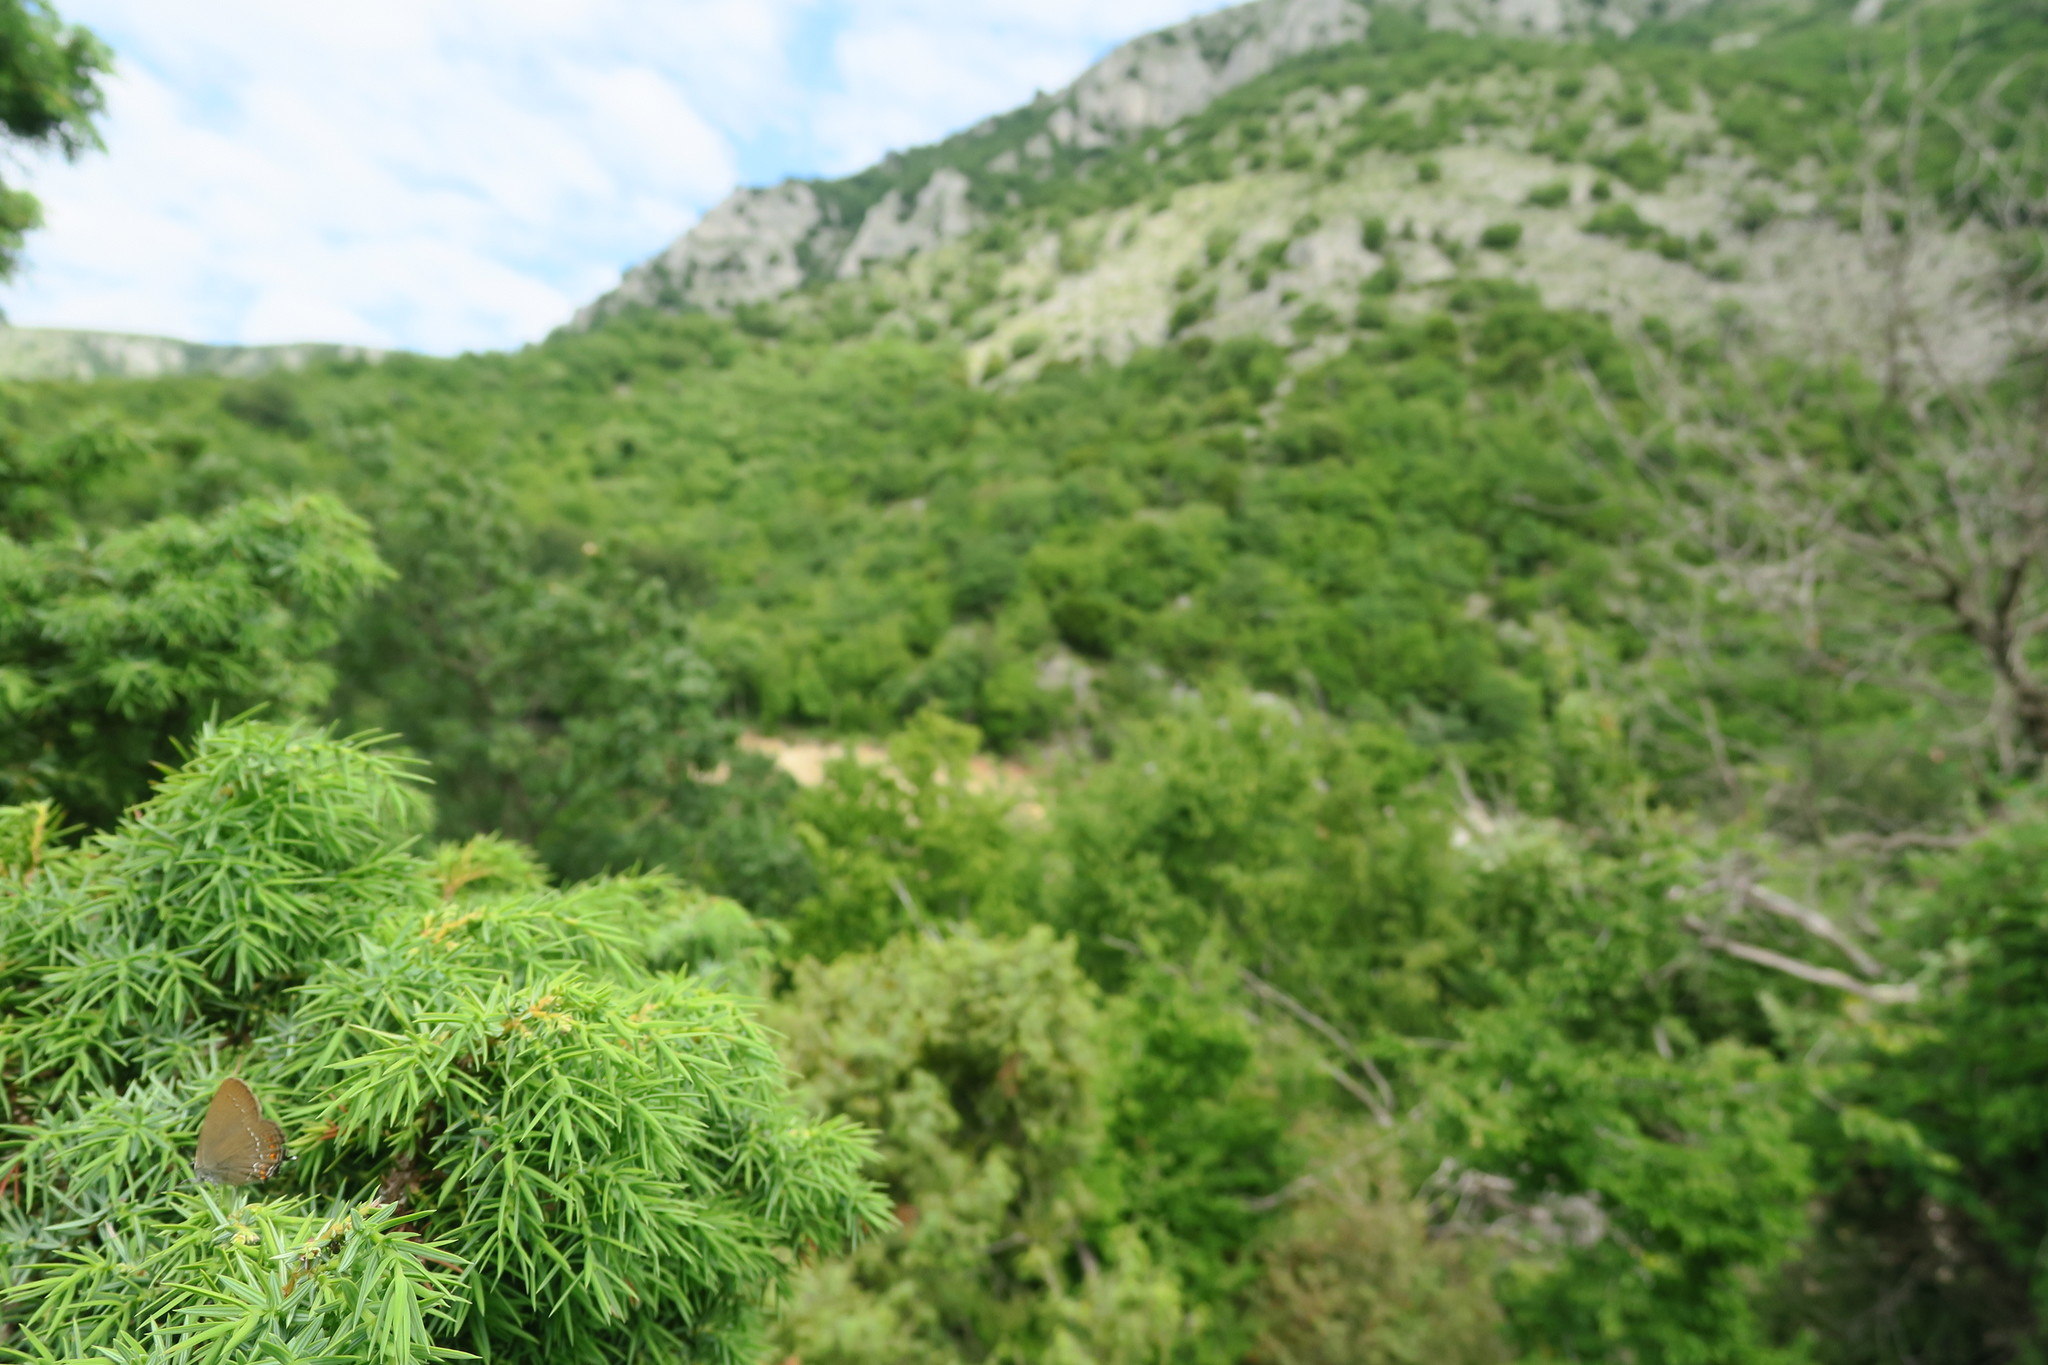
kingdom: Animalia
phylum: Arthropoda
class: Insecta
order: Lepidoptera
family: Lycaenidae
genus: Nordmannia
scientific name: Nordmannia ilicis
